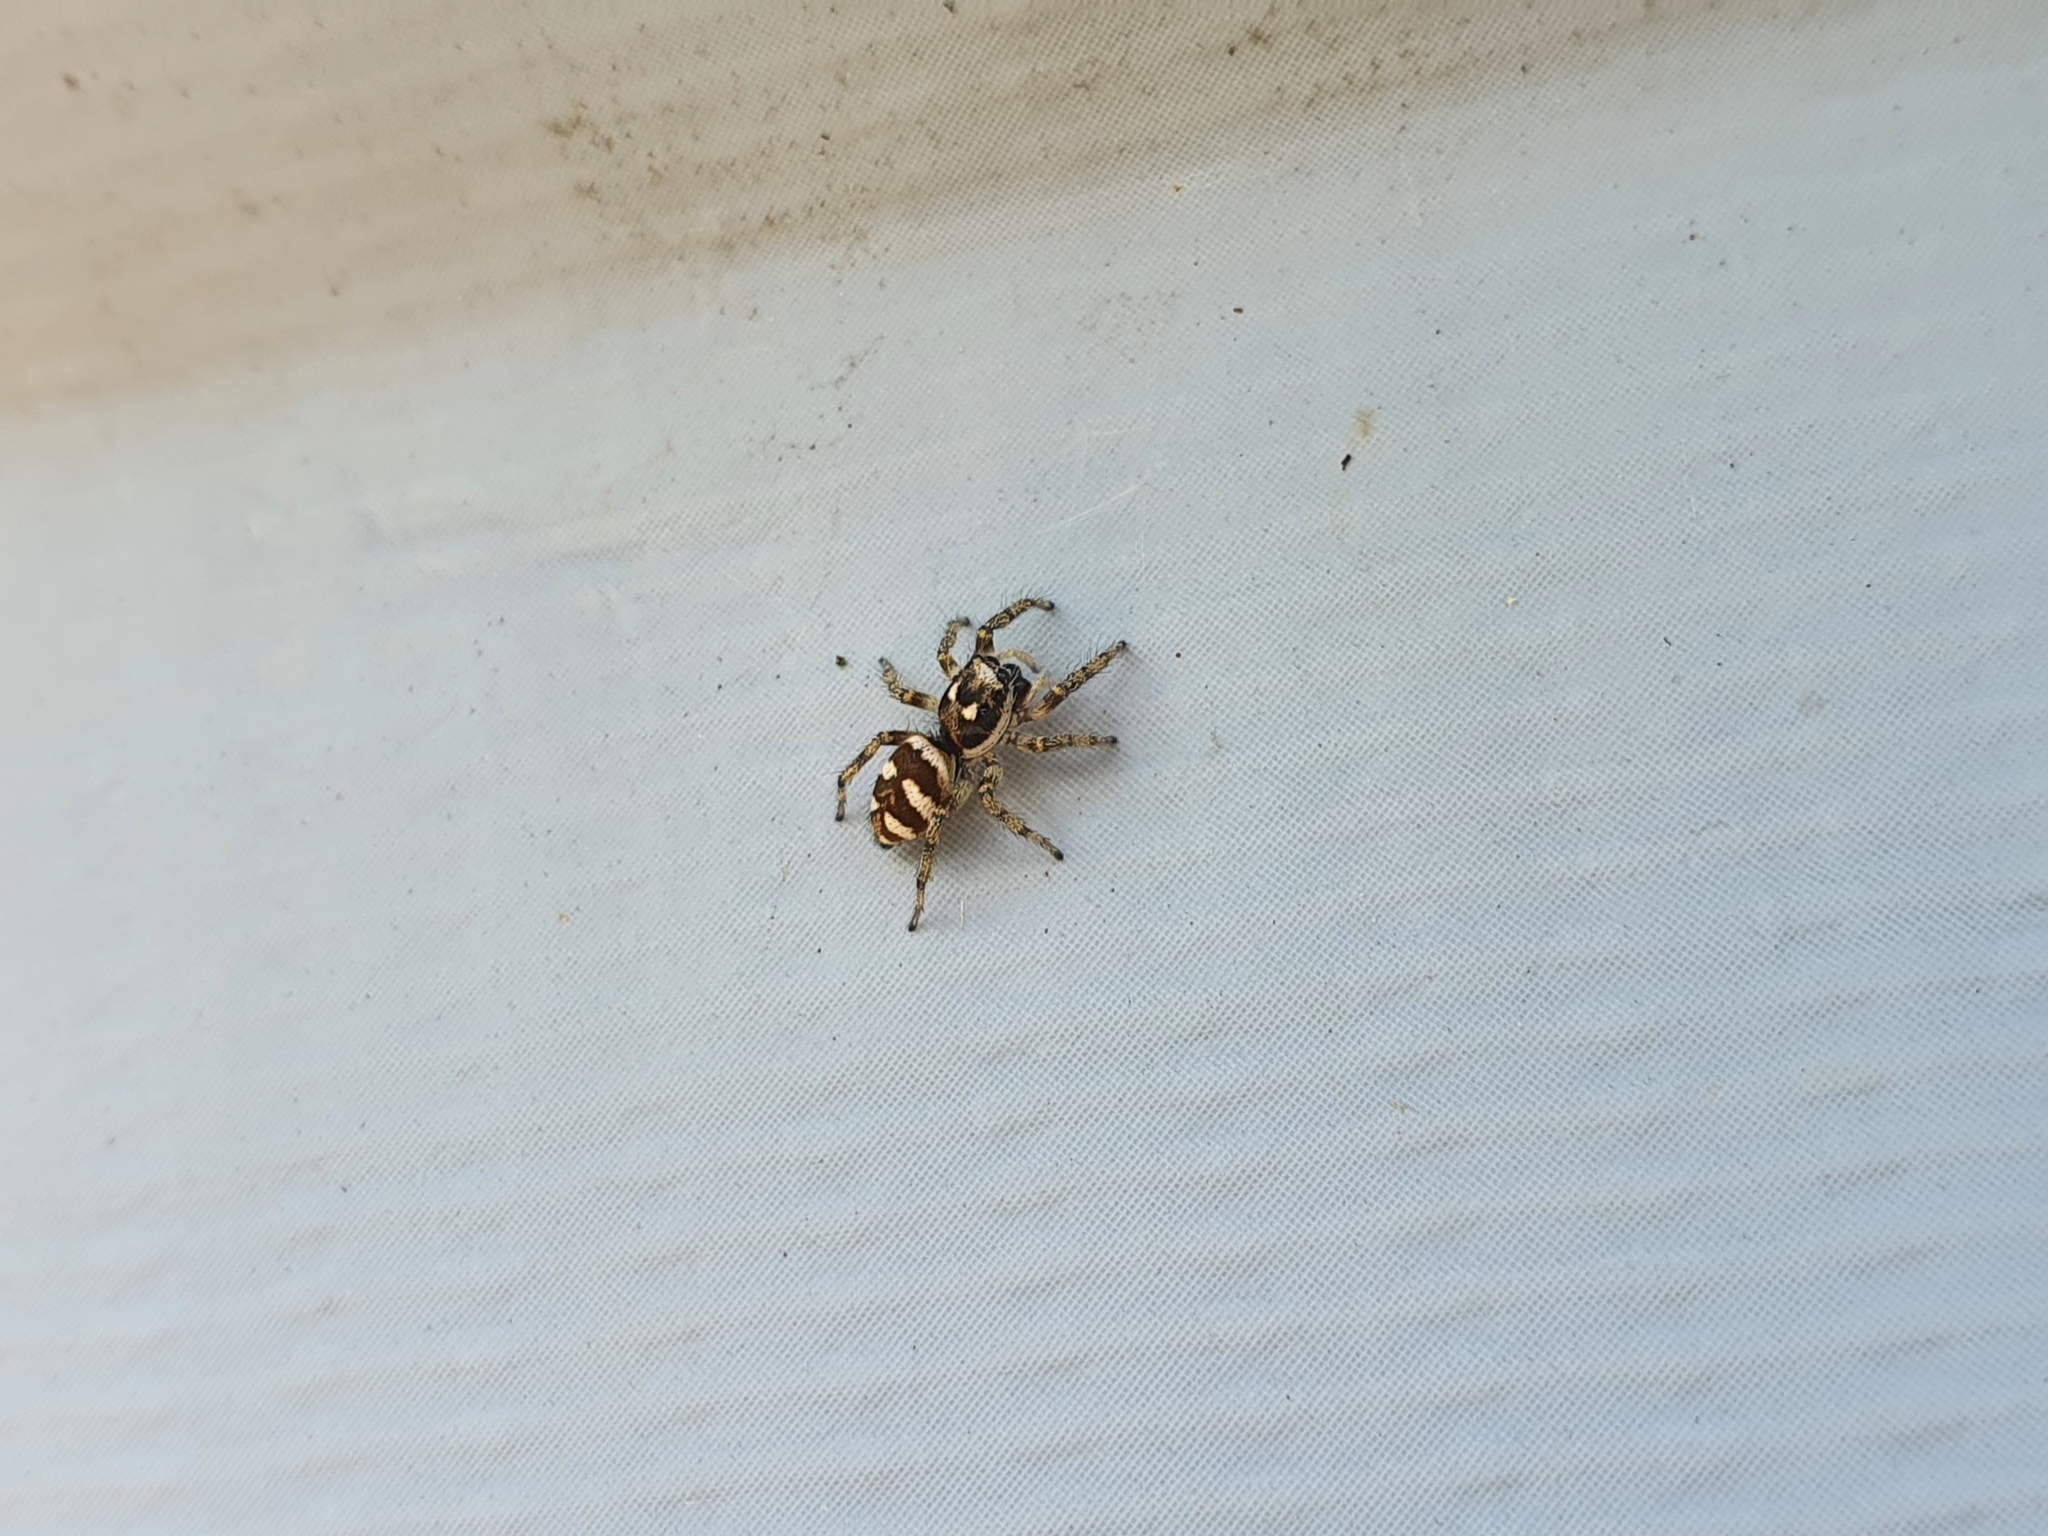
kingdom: Animalia
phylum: Arthropoda
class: Arachnida
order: Araneae
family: Salticidae
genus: Salticus
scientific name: Salticus scenicus
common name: Zebra jumper
